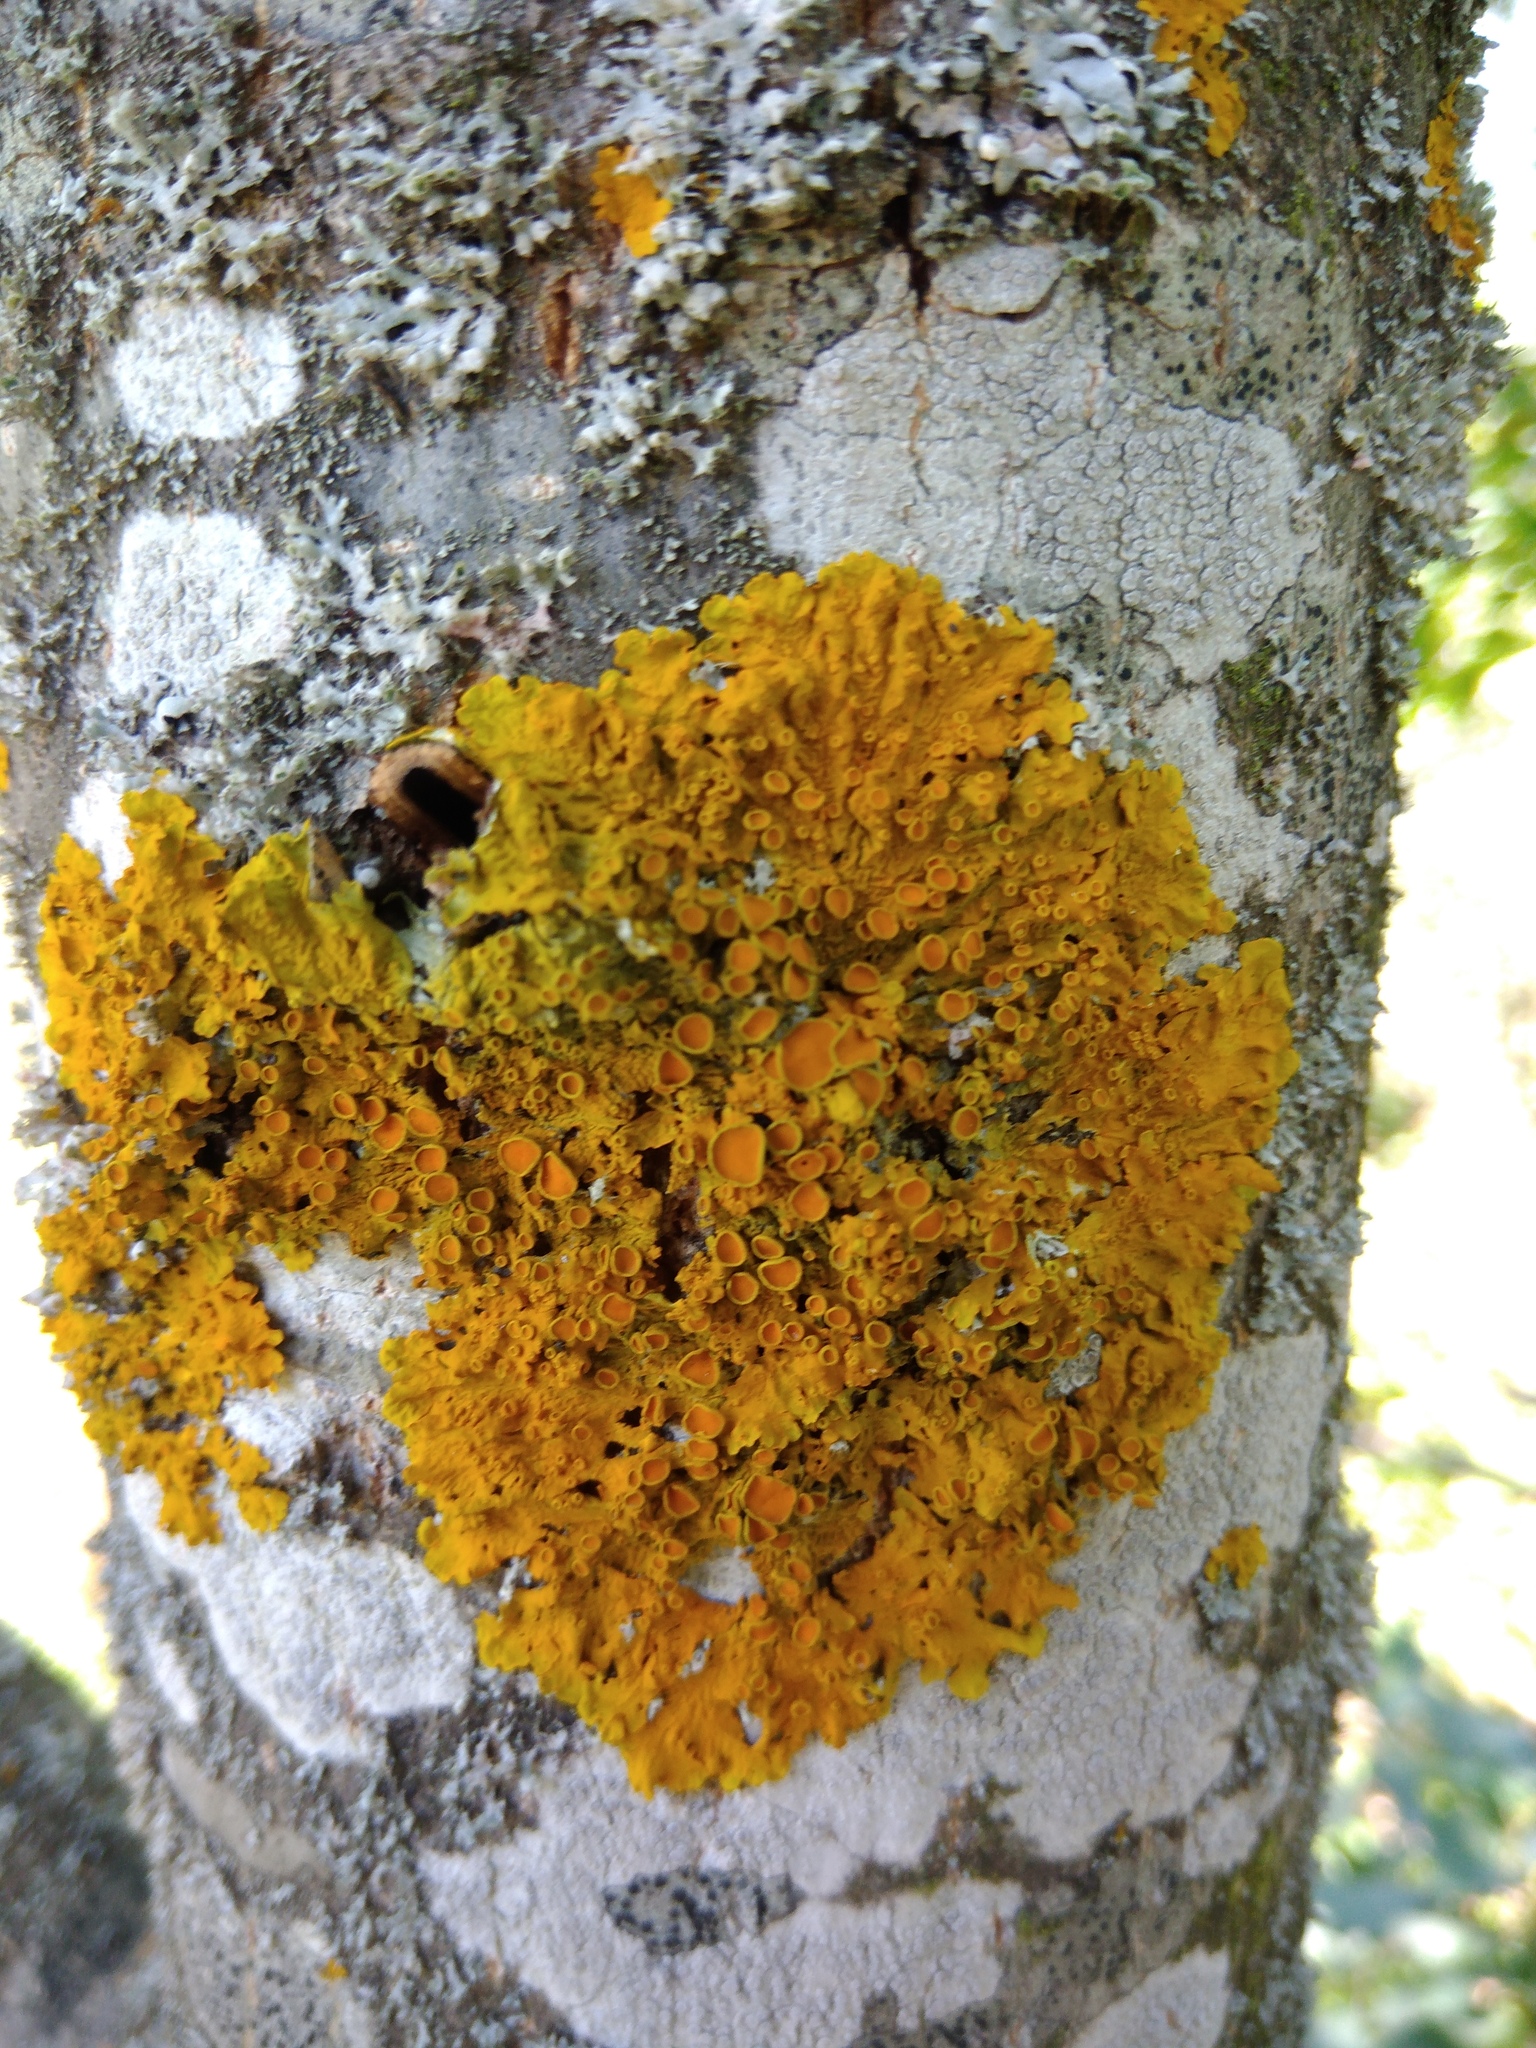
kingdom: Fungi
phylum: Ascomycota
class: Lecanoromycetes
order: Teloschistales
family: Teloschistaceae
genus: Xanthoria
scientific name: Xanthoria parietina
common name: Common orange lichen
